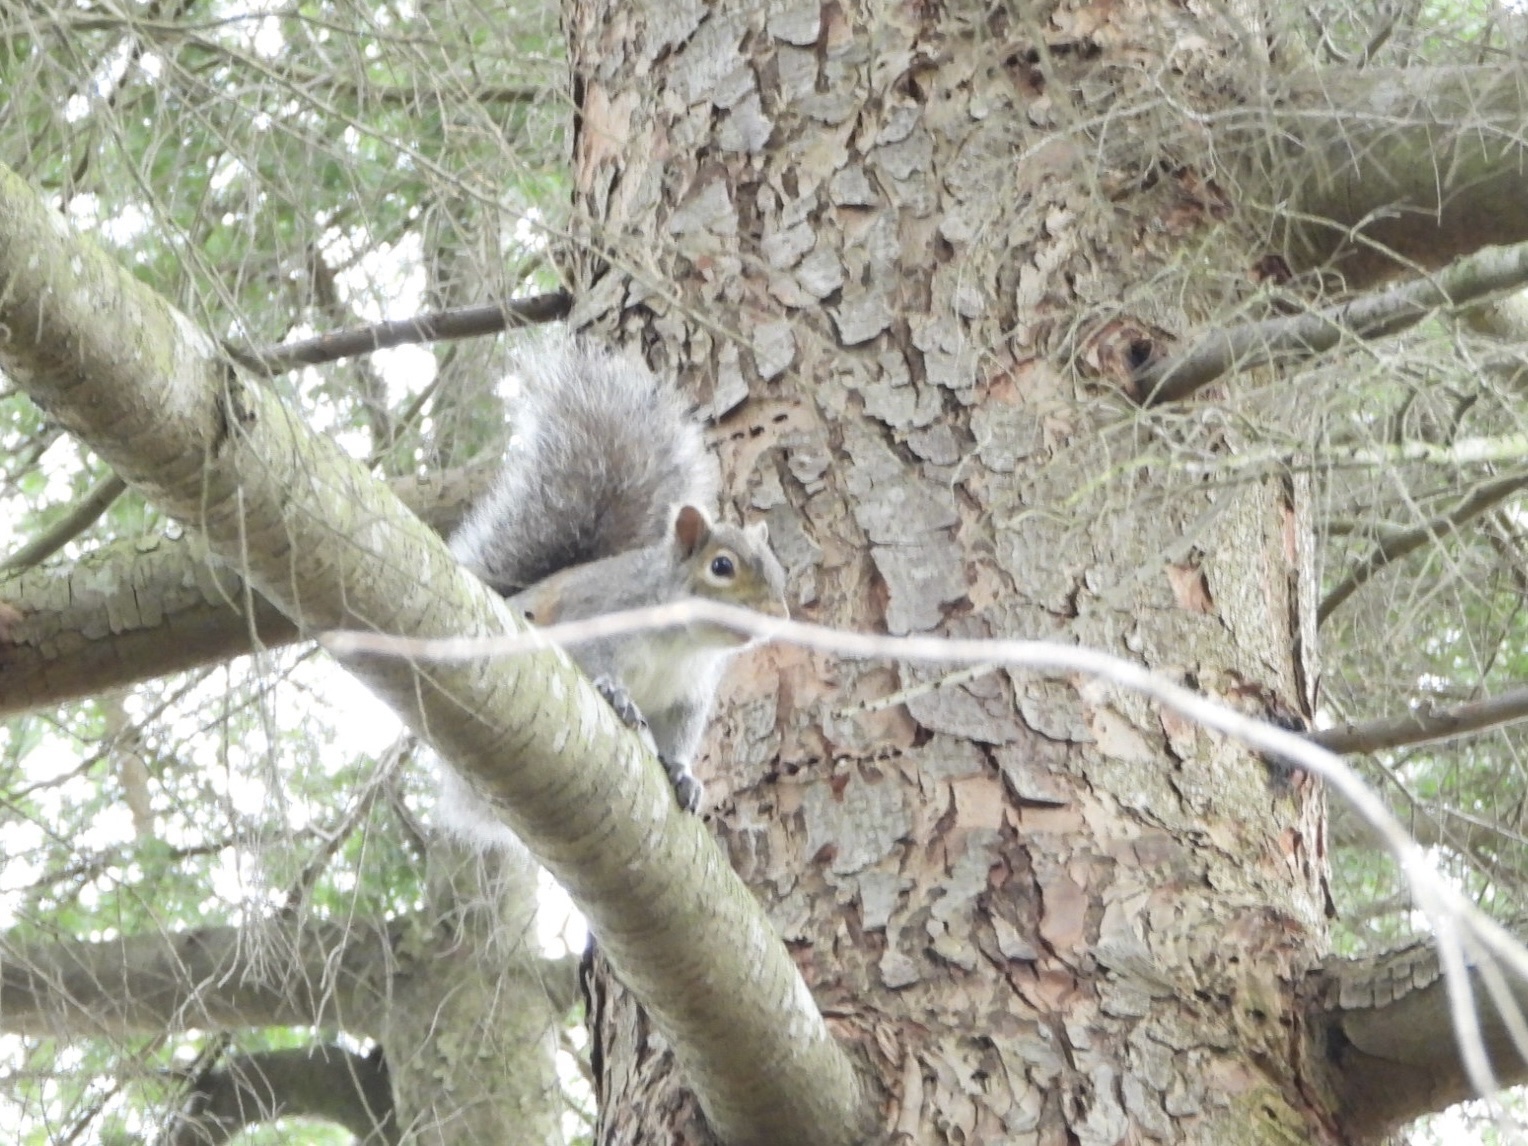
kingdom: Animalia
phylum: Chordata
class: Mammalia
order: Rodentia
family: Sciuridae
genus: Sciurus
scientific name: Sciurus carolinensis
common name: Eastern gray squirrel
